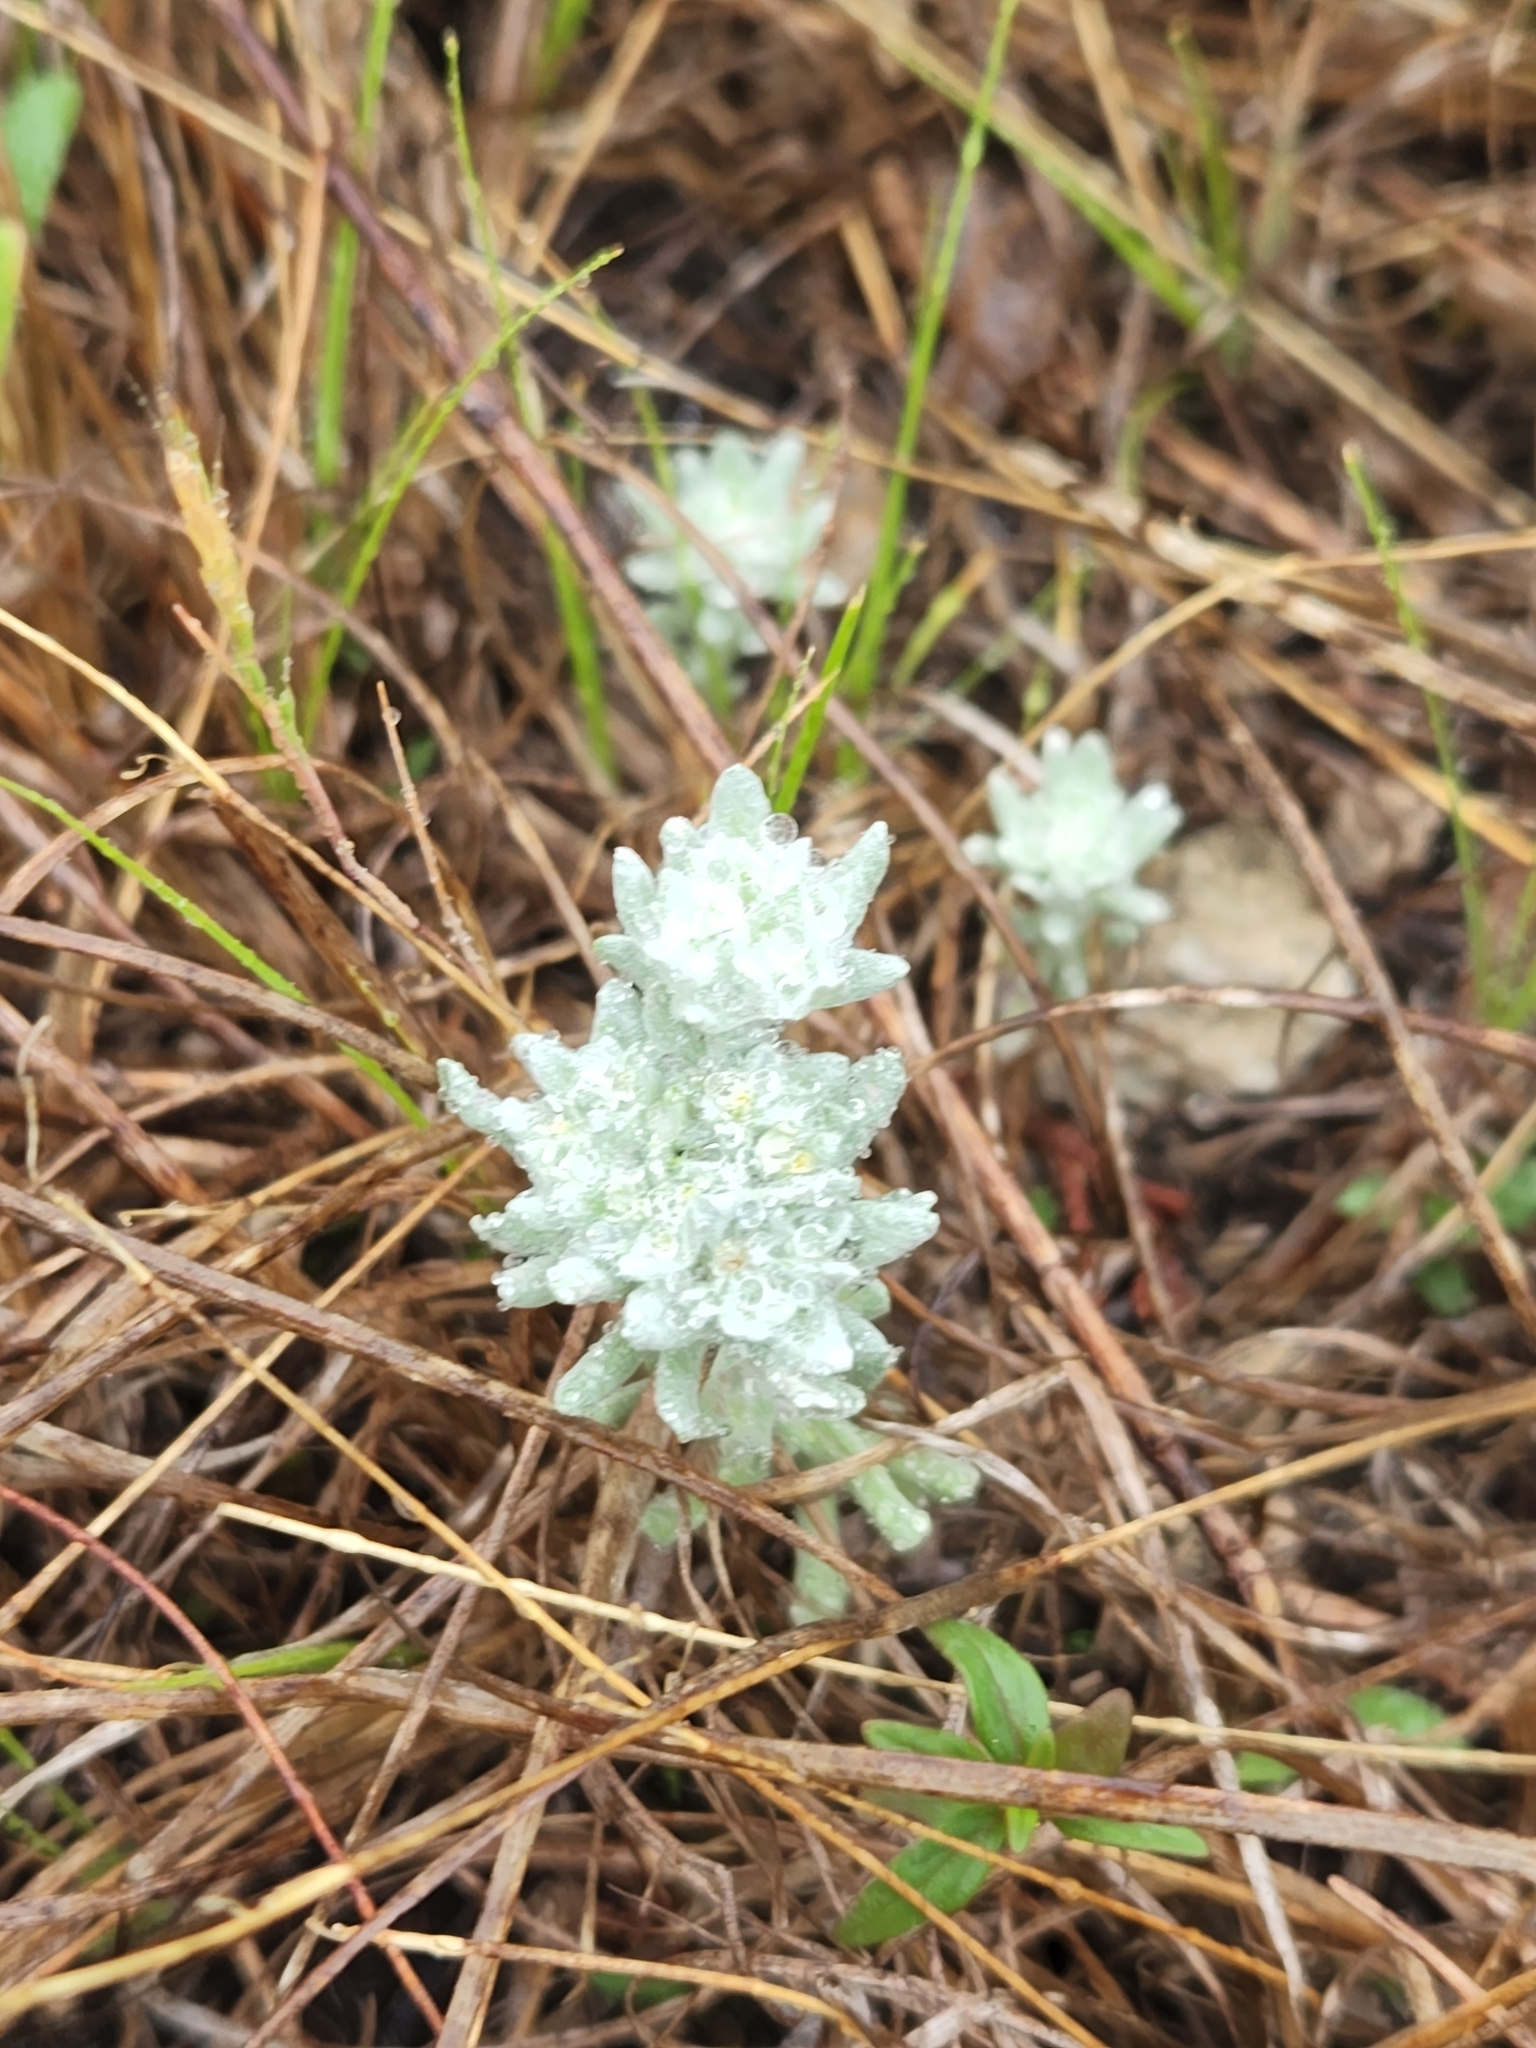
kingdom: Plantae
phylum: Tracheophyta
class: Magnoliopsida
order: Asterales
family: Asteraceae
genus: Diaperia
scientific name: Diaperia verna
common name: Many-stem rabbit-tobacco
